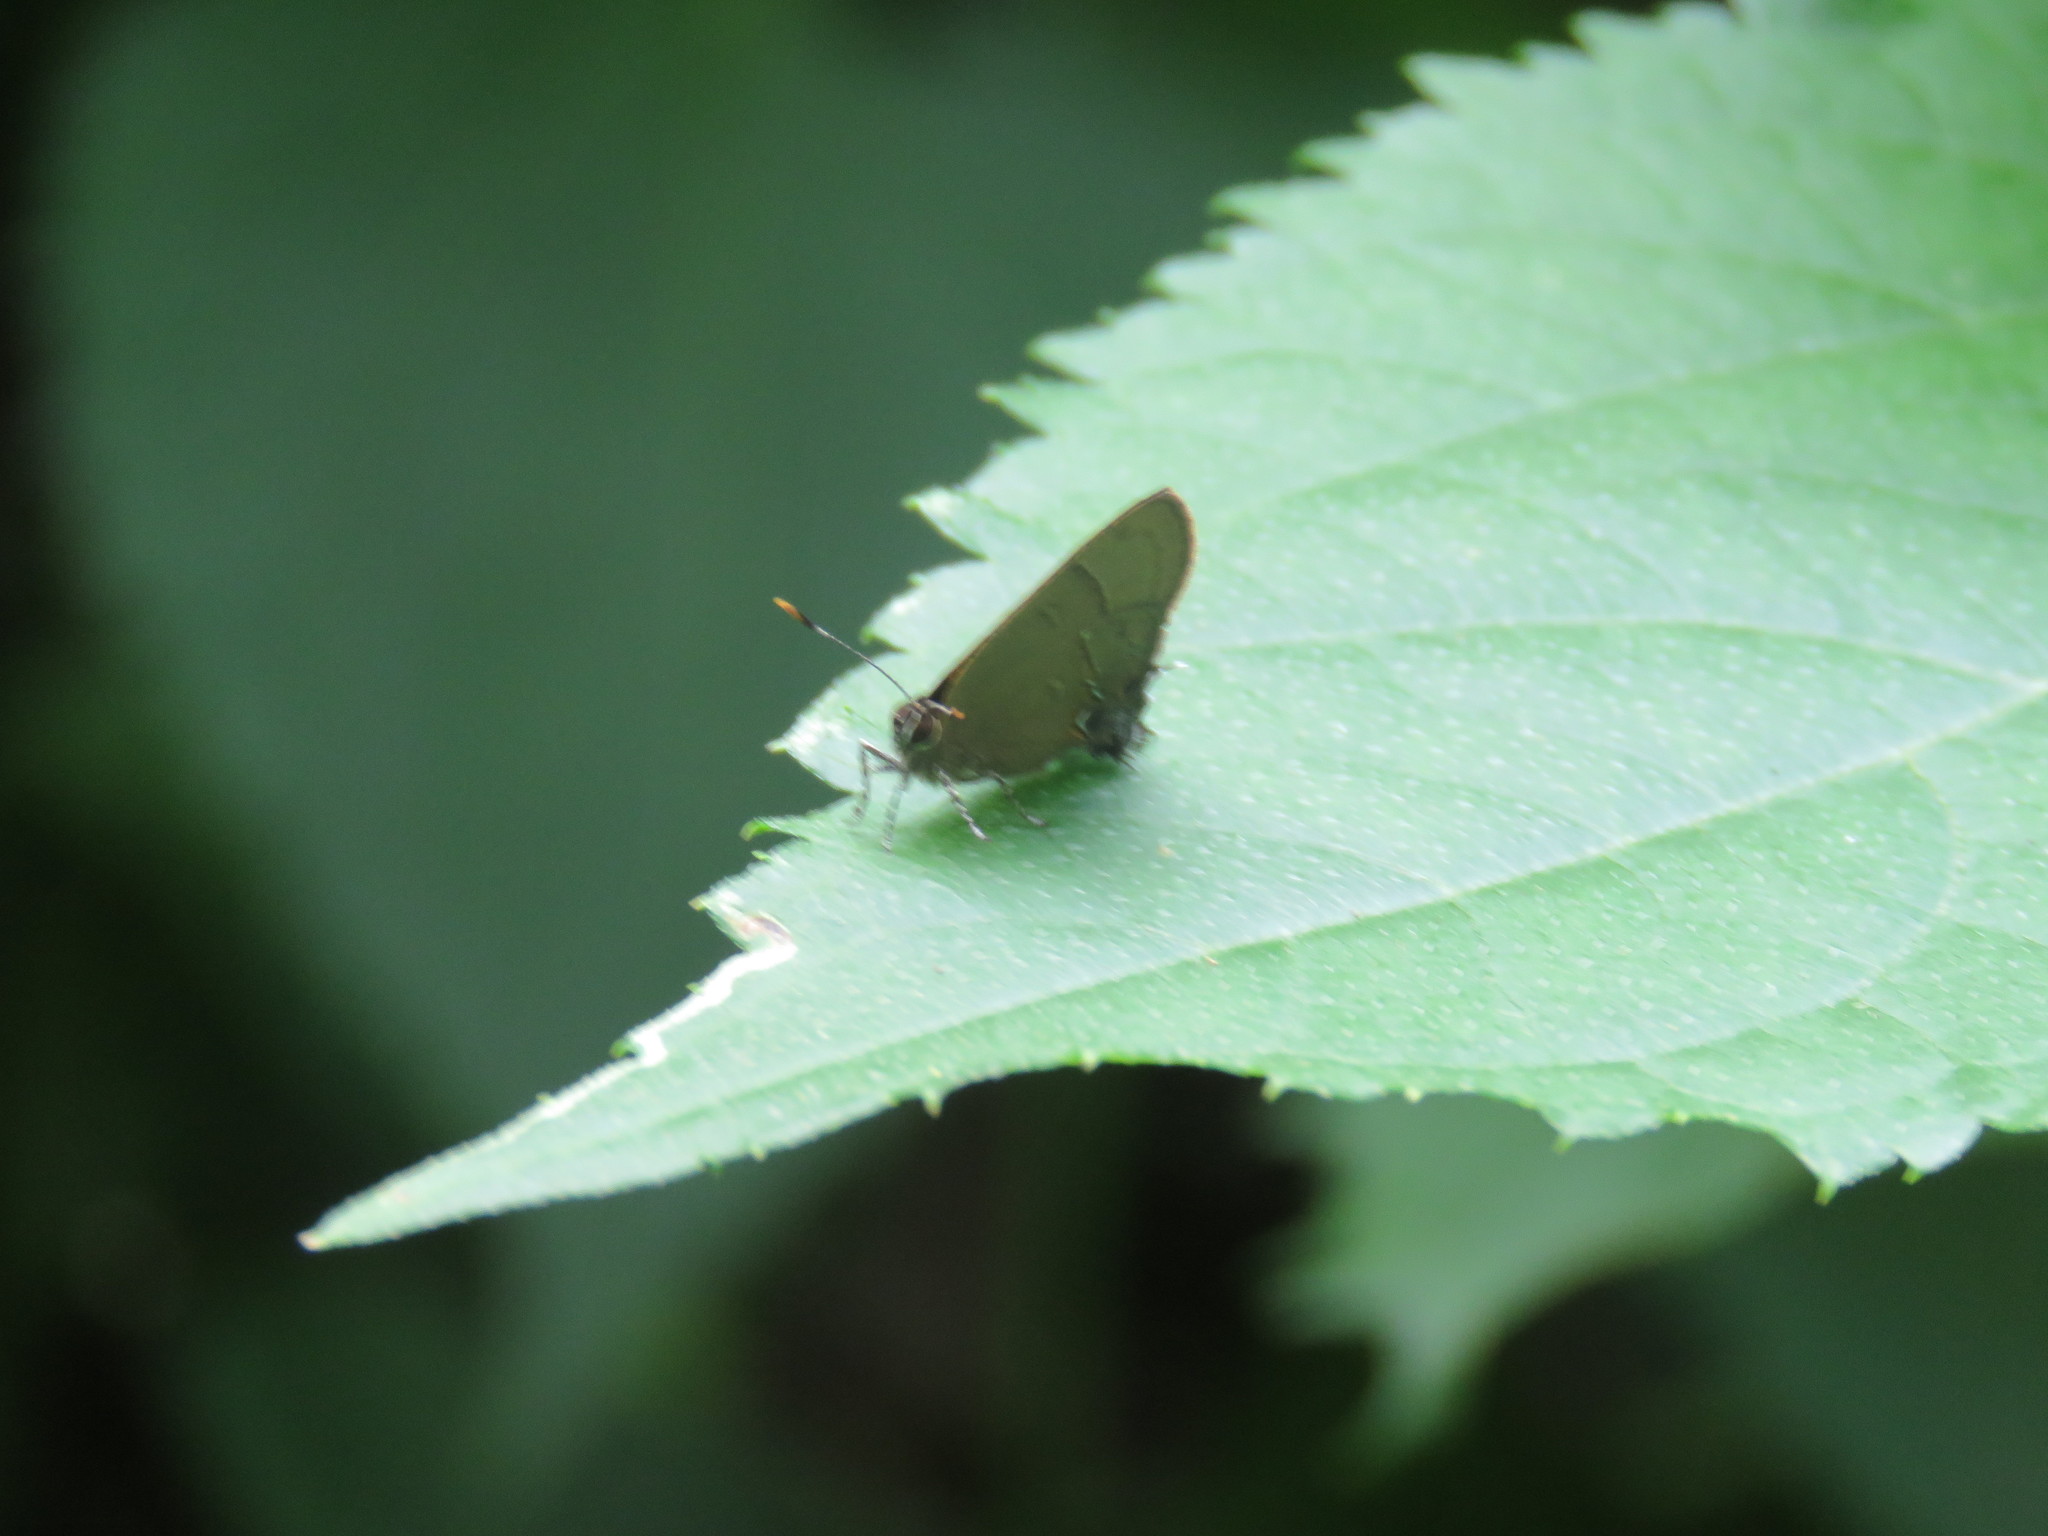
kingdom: Animalia
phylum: Arthropoda
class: Insecta
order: Lepidoptera
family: Lycaenidae
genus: Electrostrymon
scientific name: Electrostrymon endymion
